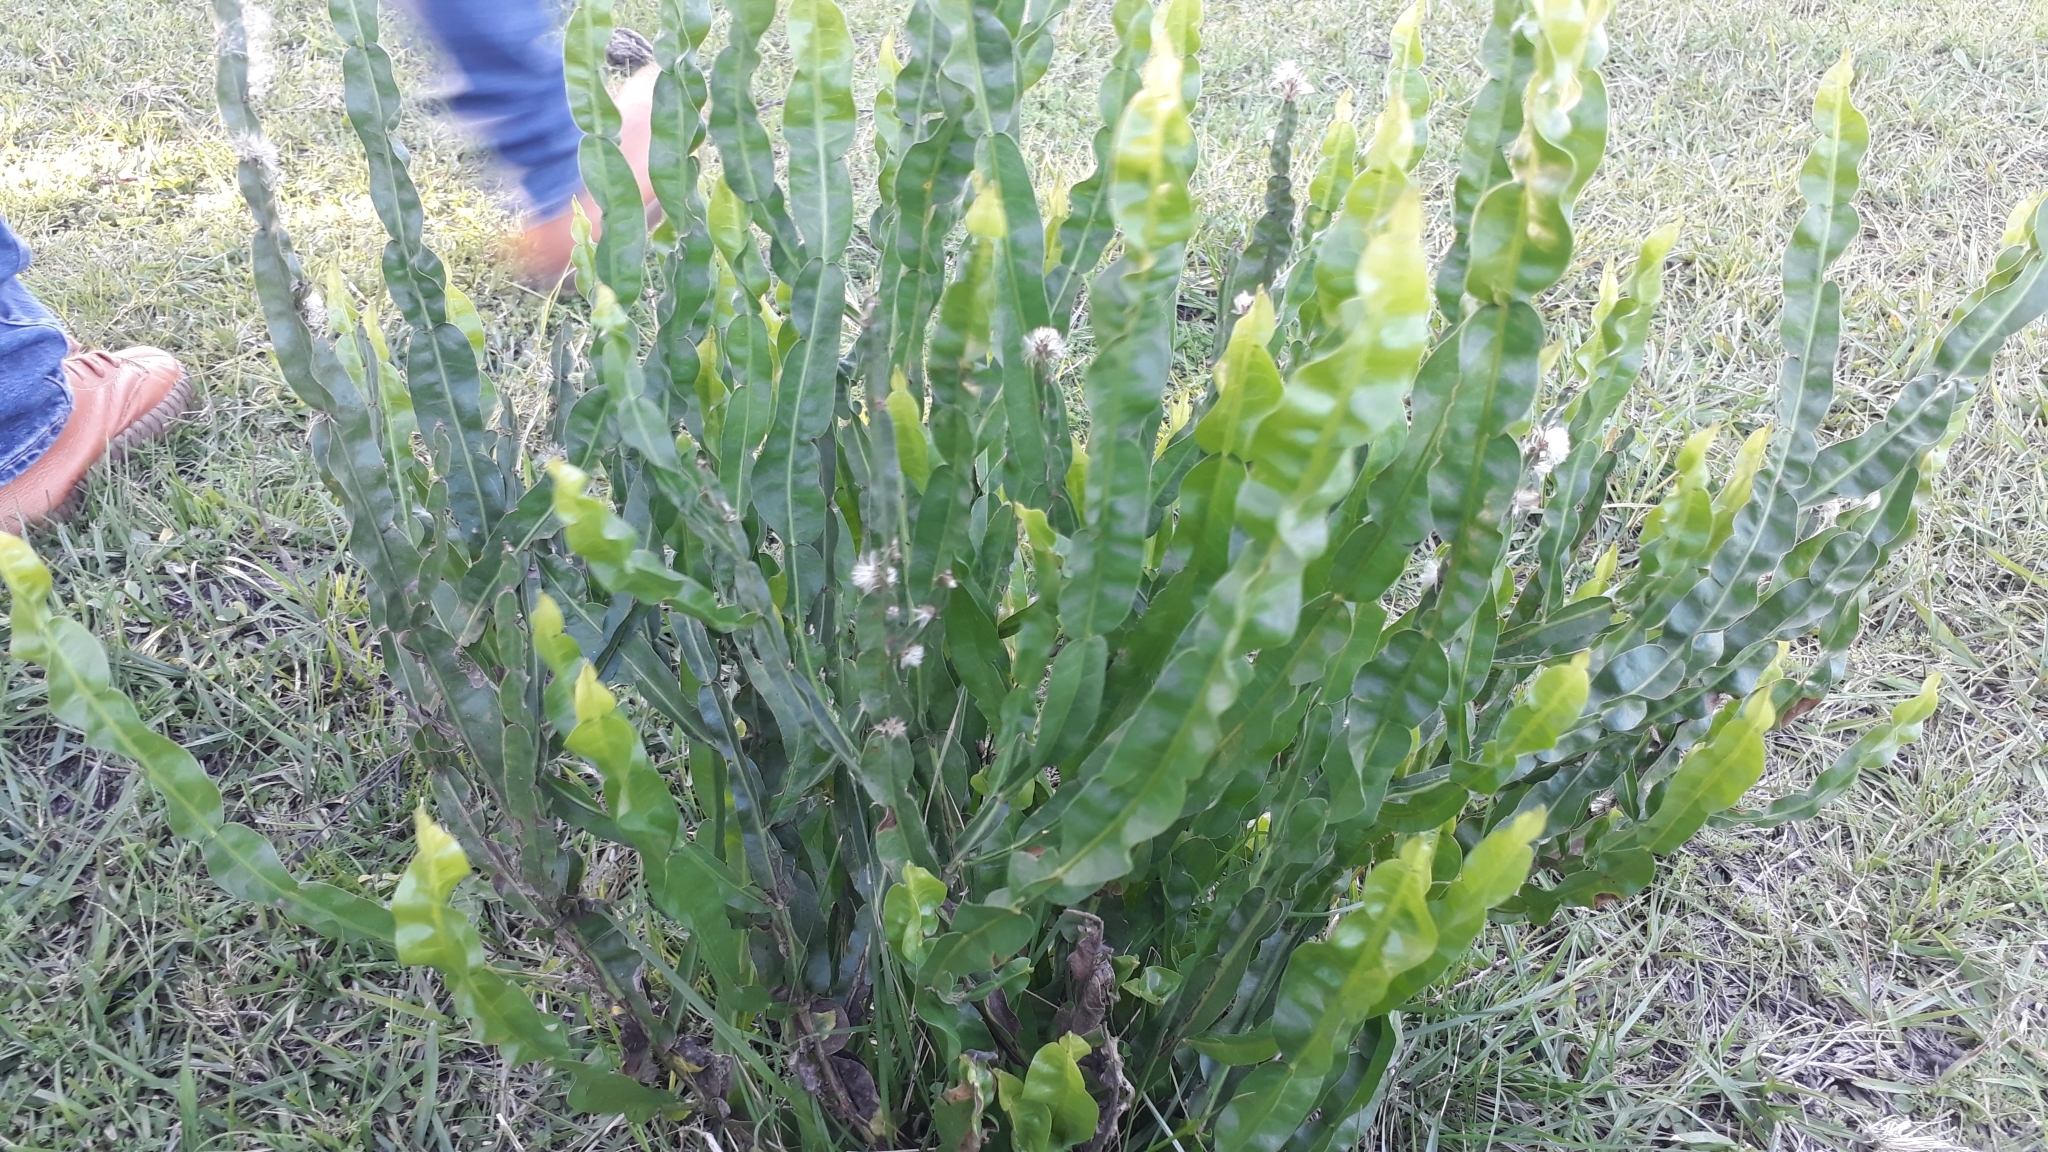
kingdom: Plantae
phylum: Tracheophyta
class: Magnoliopsida
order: Asterales
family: Asteraceae
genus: Baccharis
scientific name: Baccharis trimera
